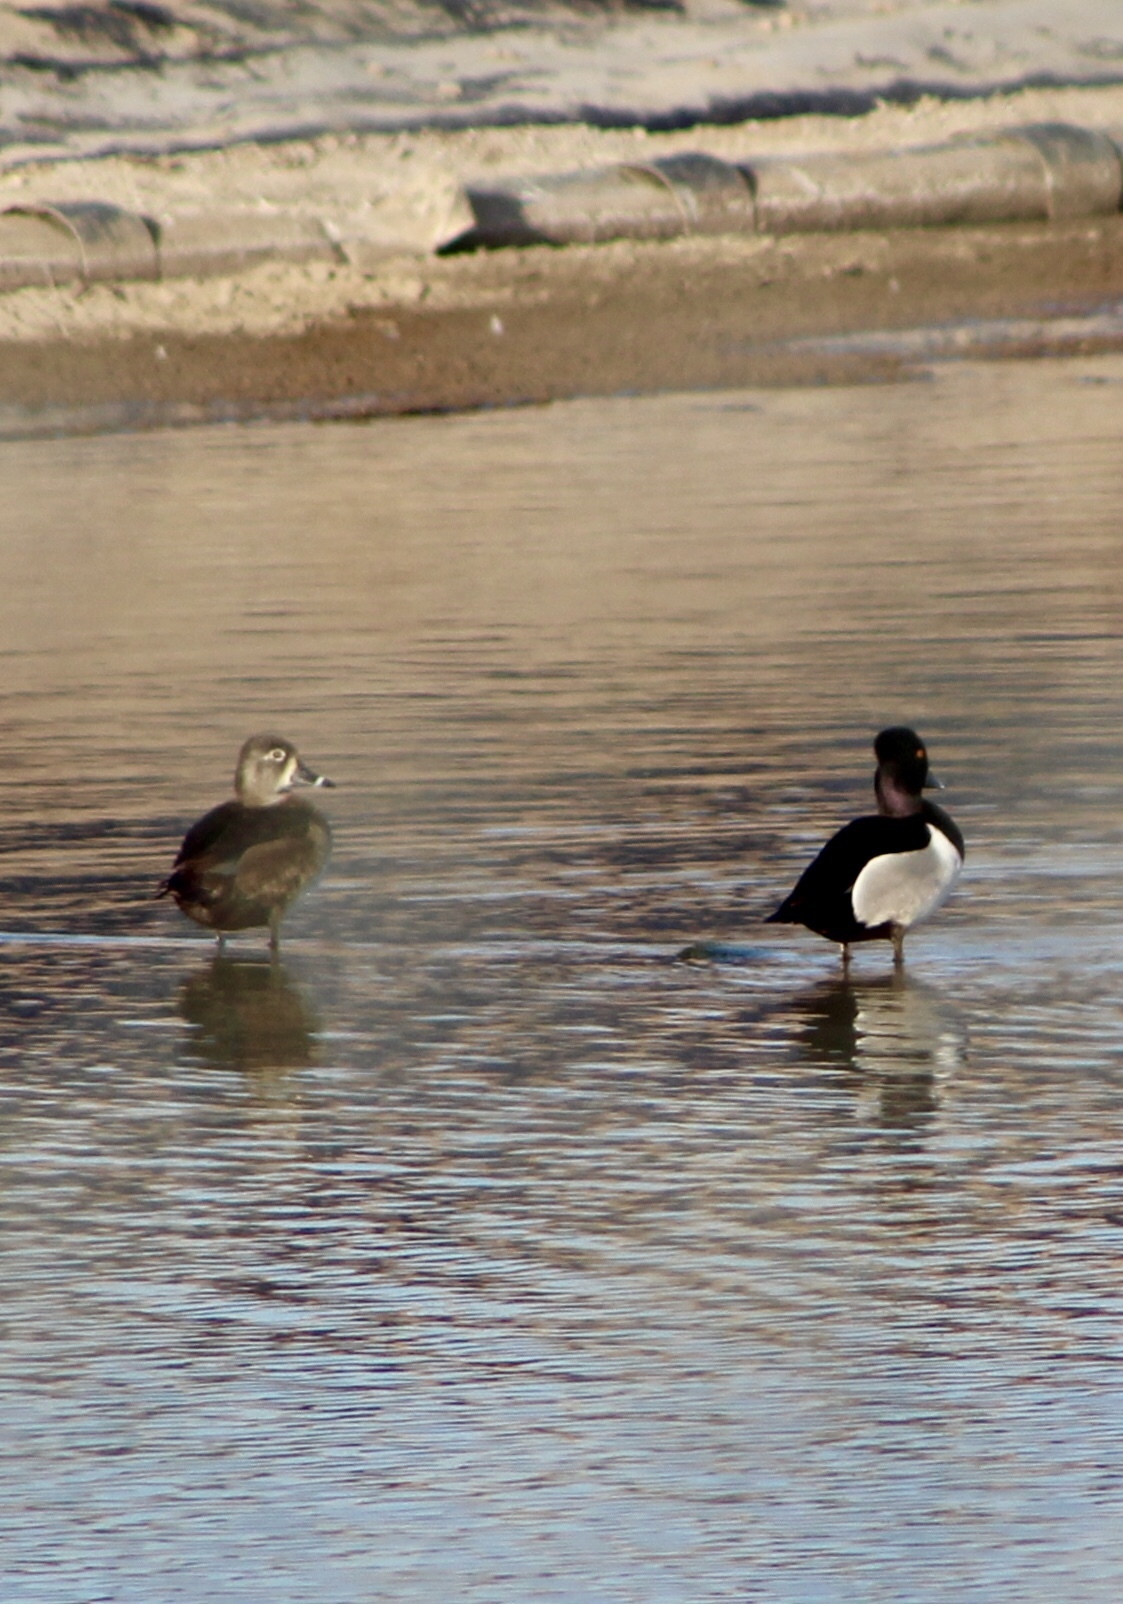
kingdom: Animalia
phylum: Chordata
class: Aves
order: Anseriformes
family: Anatidae
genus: Spatula
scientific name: Spatula clypeata
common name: Northern shoveler
